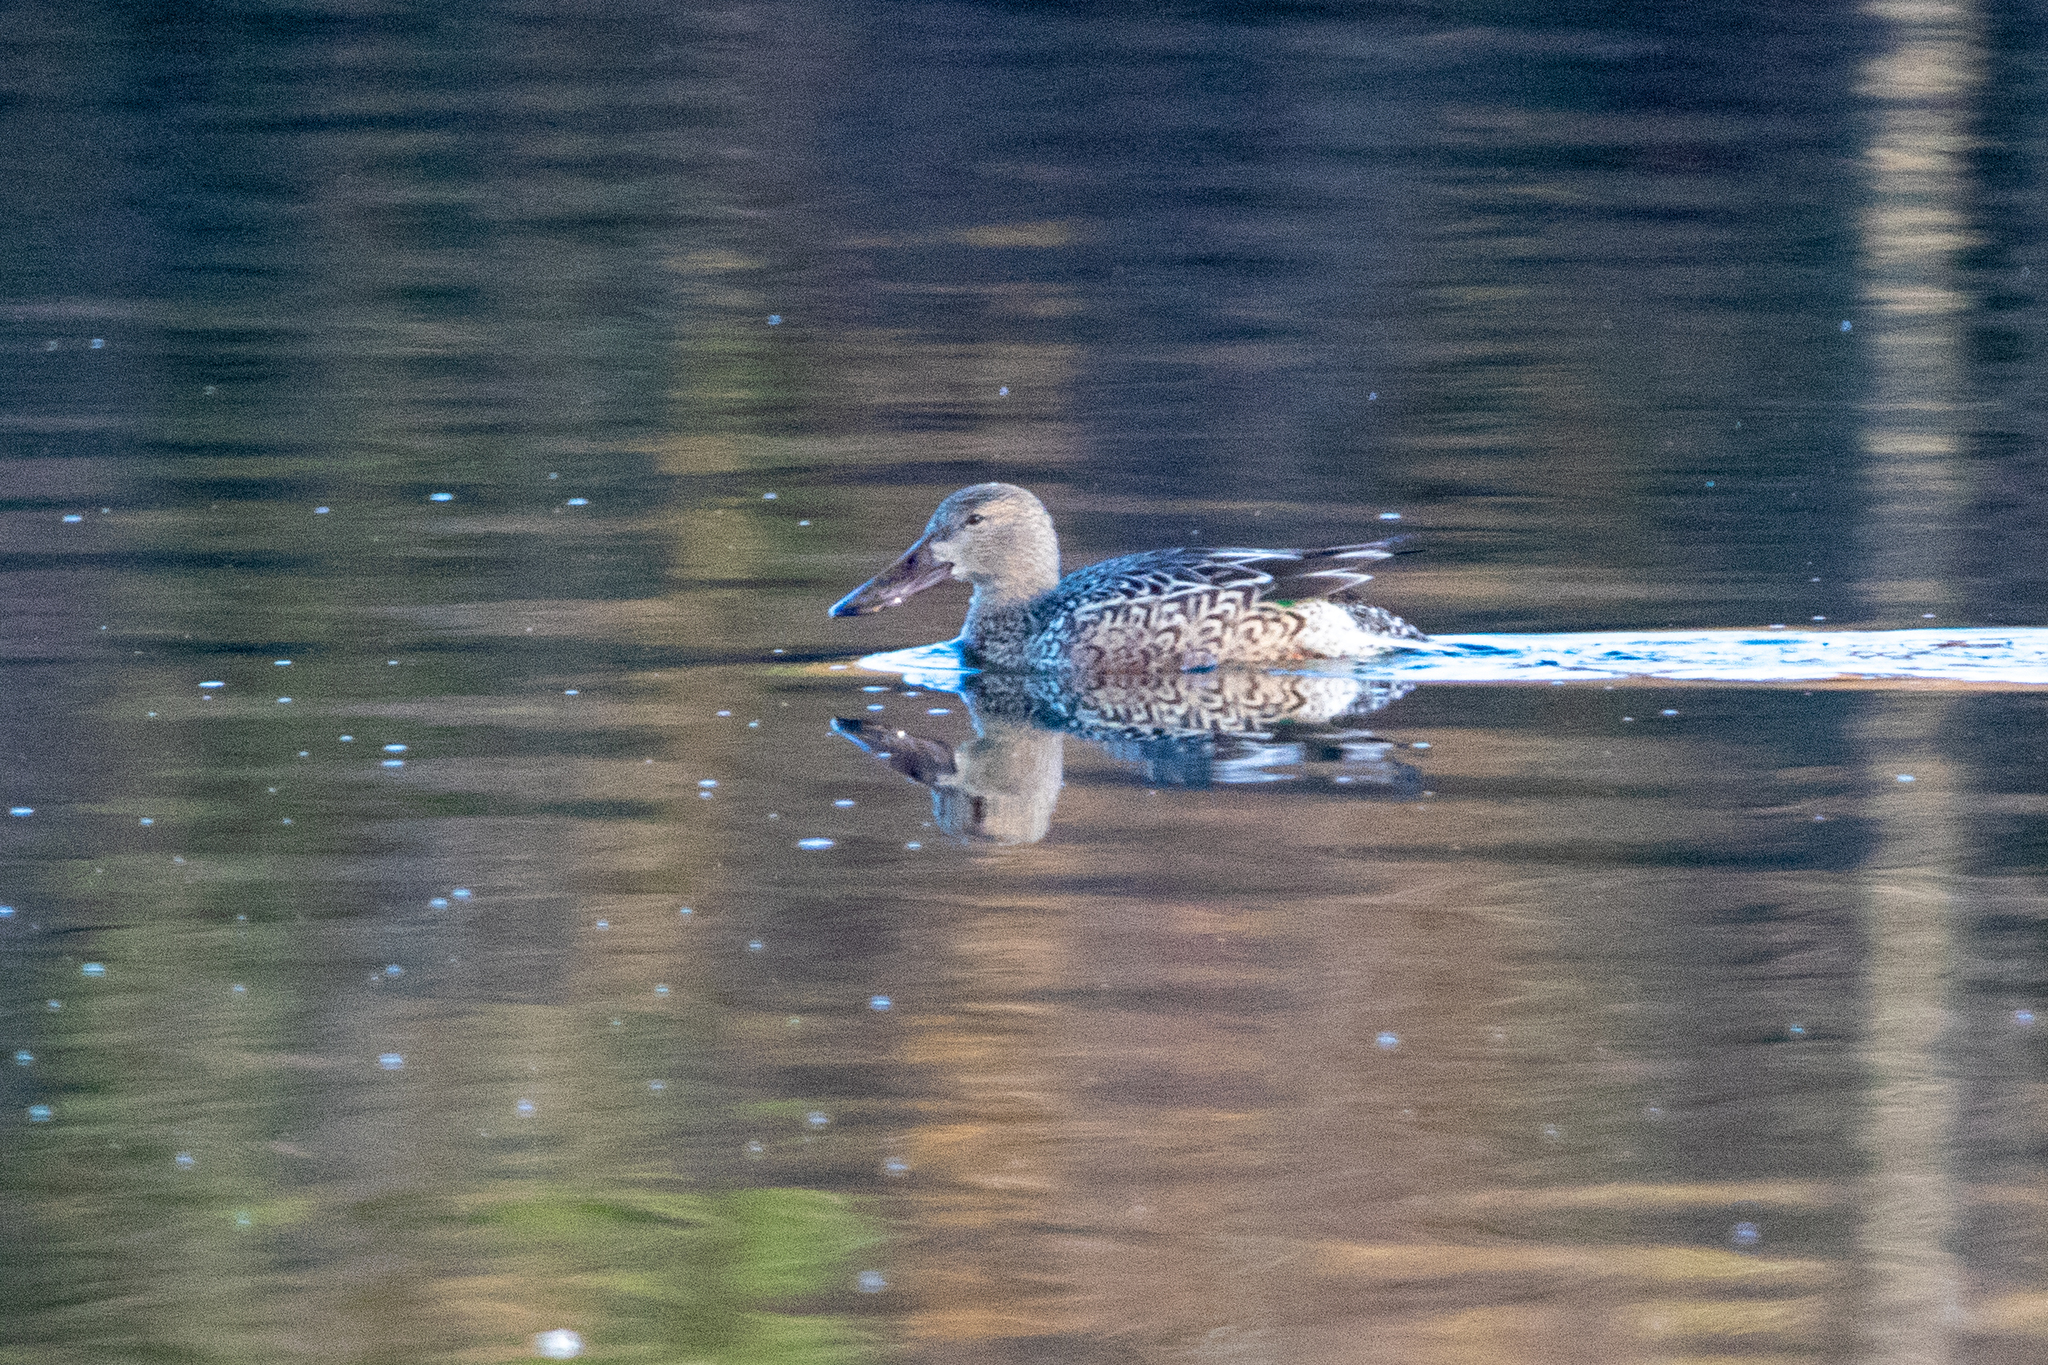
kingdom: Animalia
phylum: Chordata
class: Aves
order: Anseriformes
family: Anatidae
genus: Spatula
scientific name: Spatula clypeata
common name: Northern shoveler
